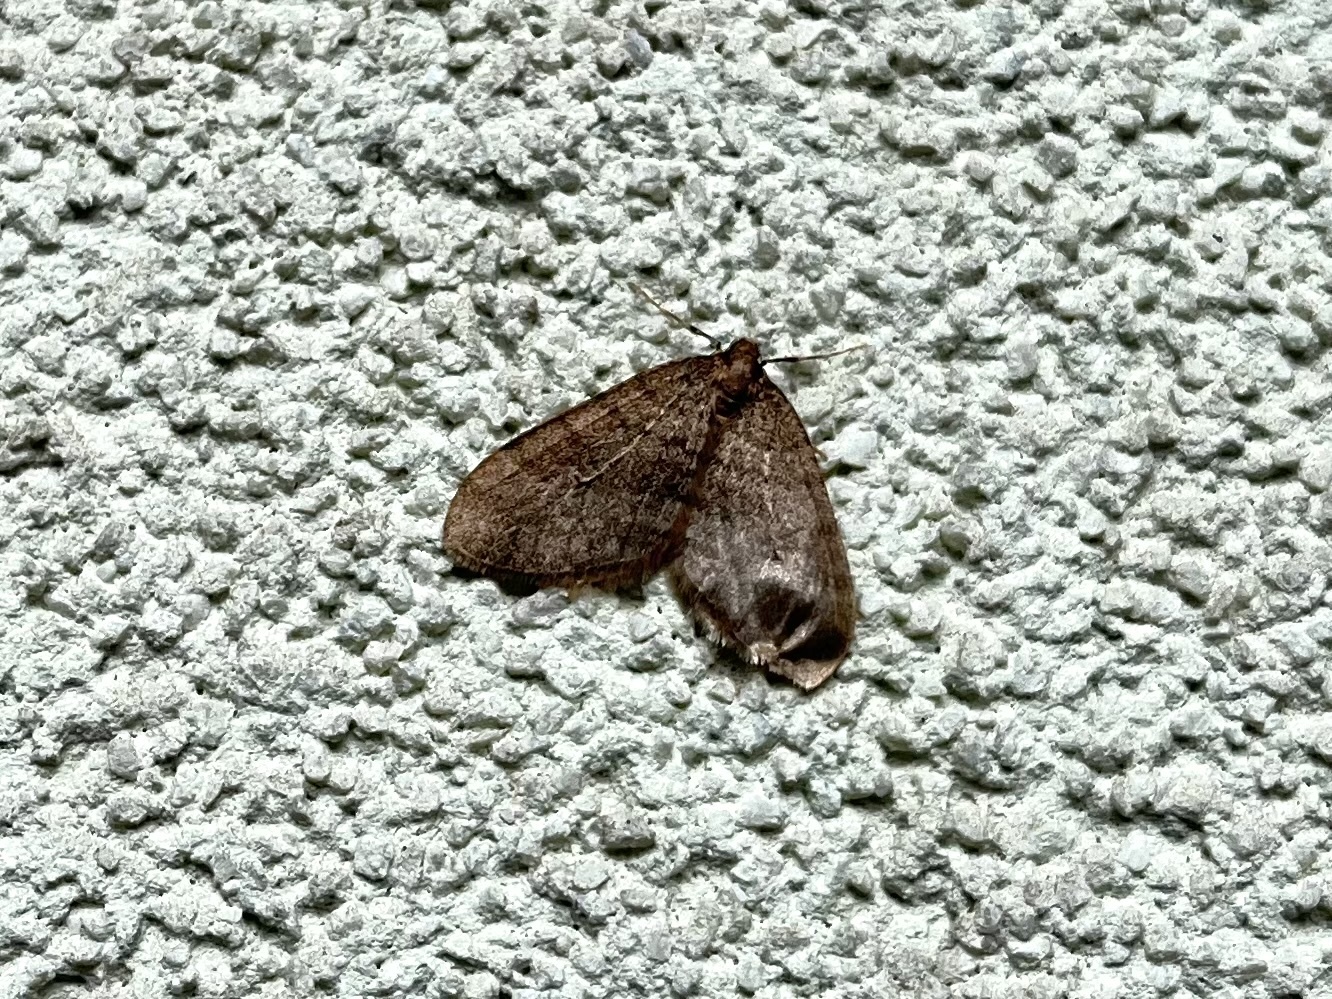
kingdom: Animalia
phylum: Arthropoda
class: Insecta
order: Lepidoptera
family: Geometridae
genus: Operophtera
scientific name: Operophtera brumata
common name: Winter moth
